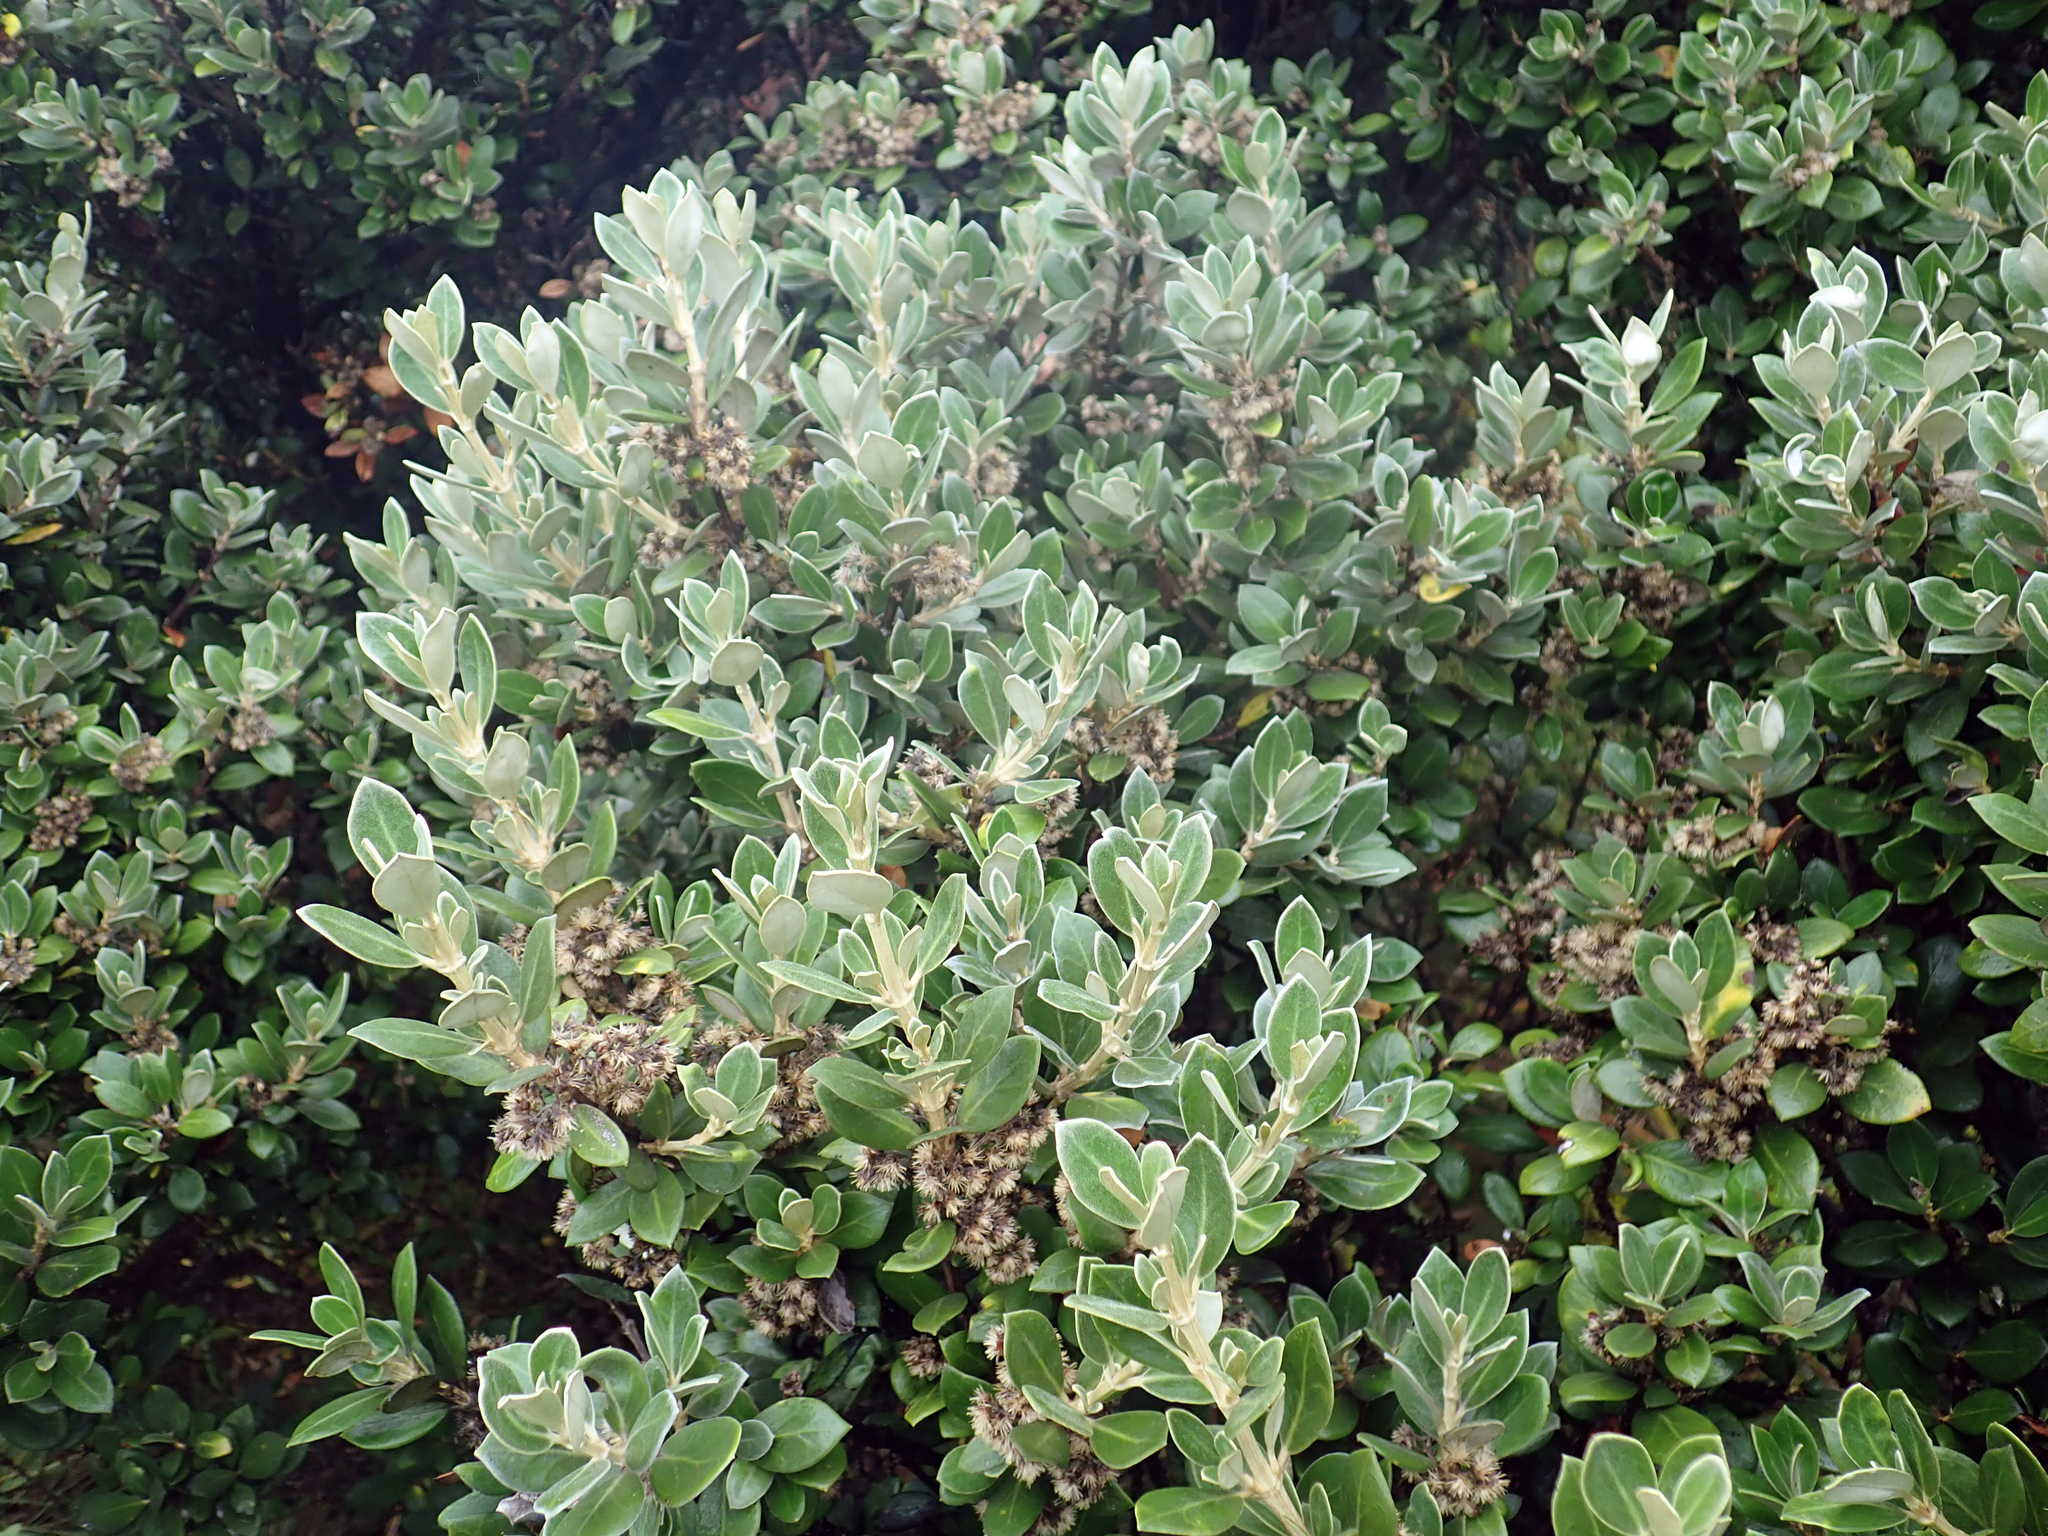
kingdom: Plantae
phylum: Tracheophyta
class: Magnoliopsida
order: Asterales
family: Asteraceae
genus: Olearia
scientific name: Olearia traversiorum
